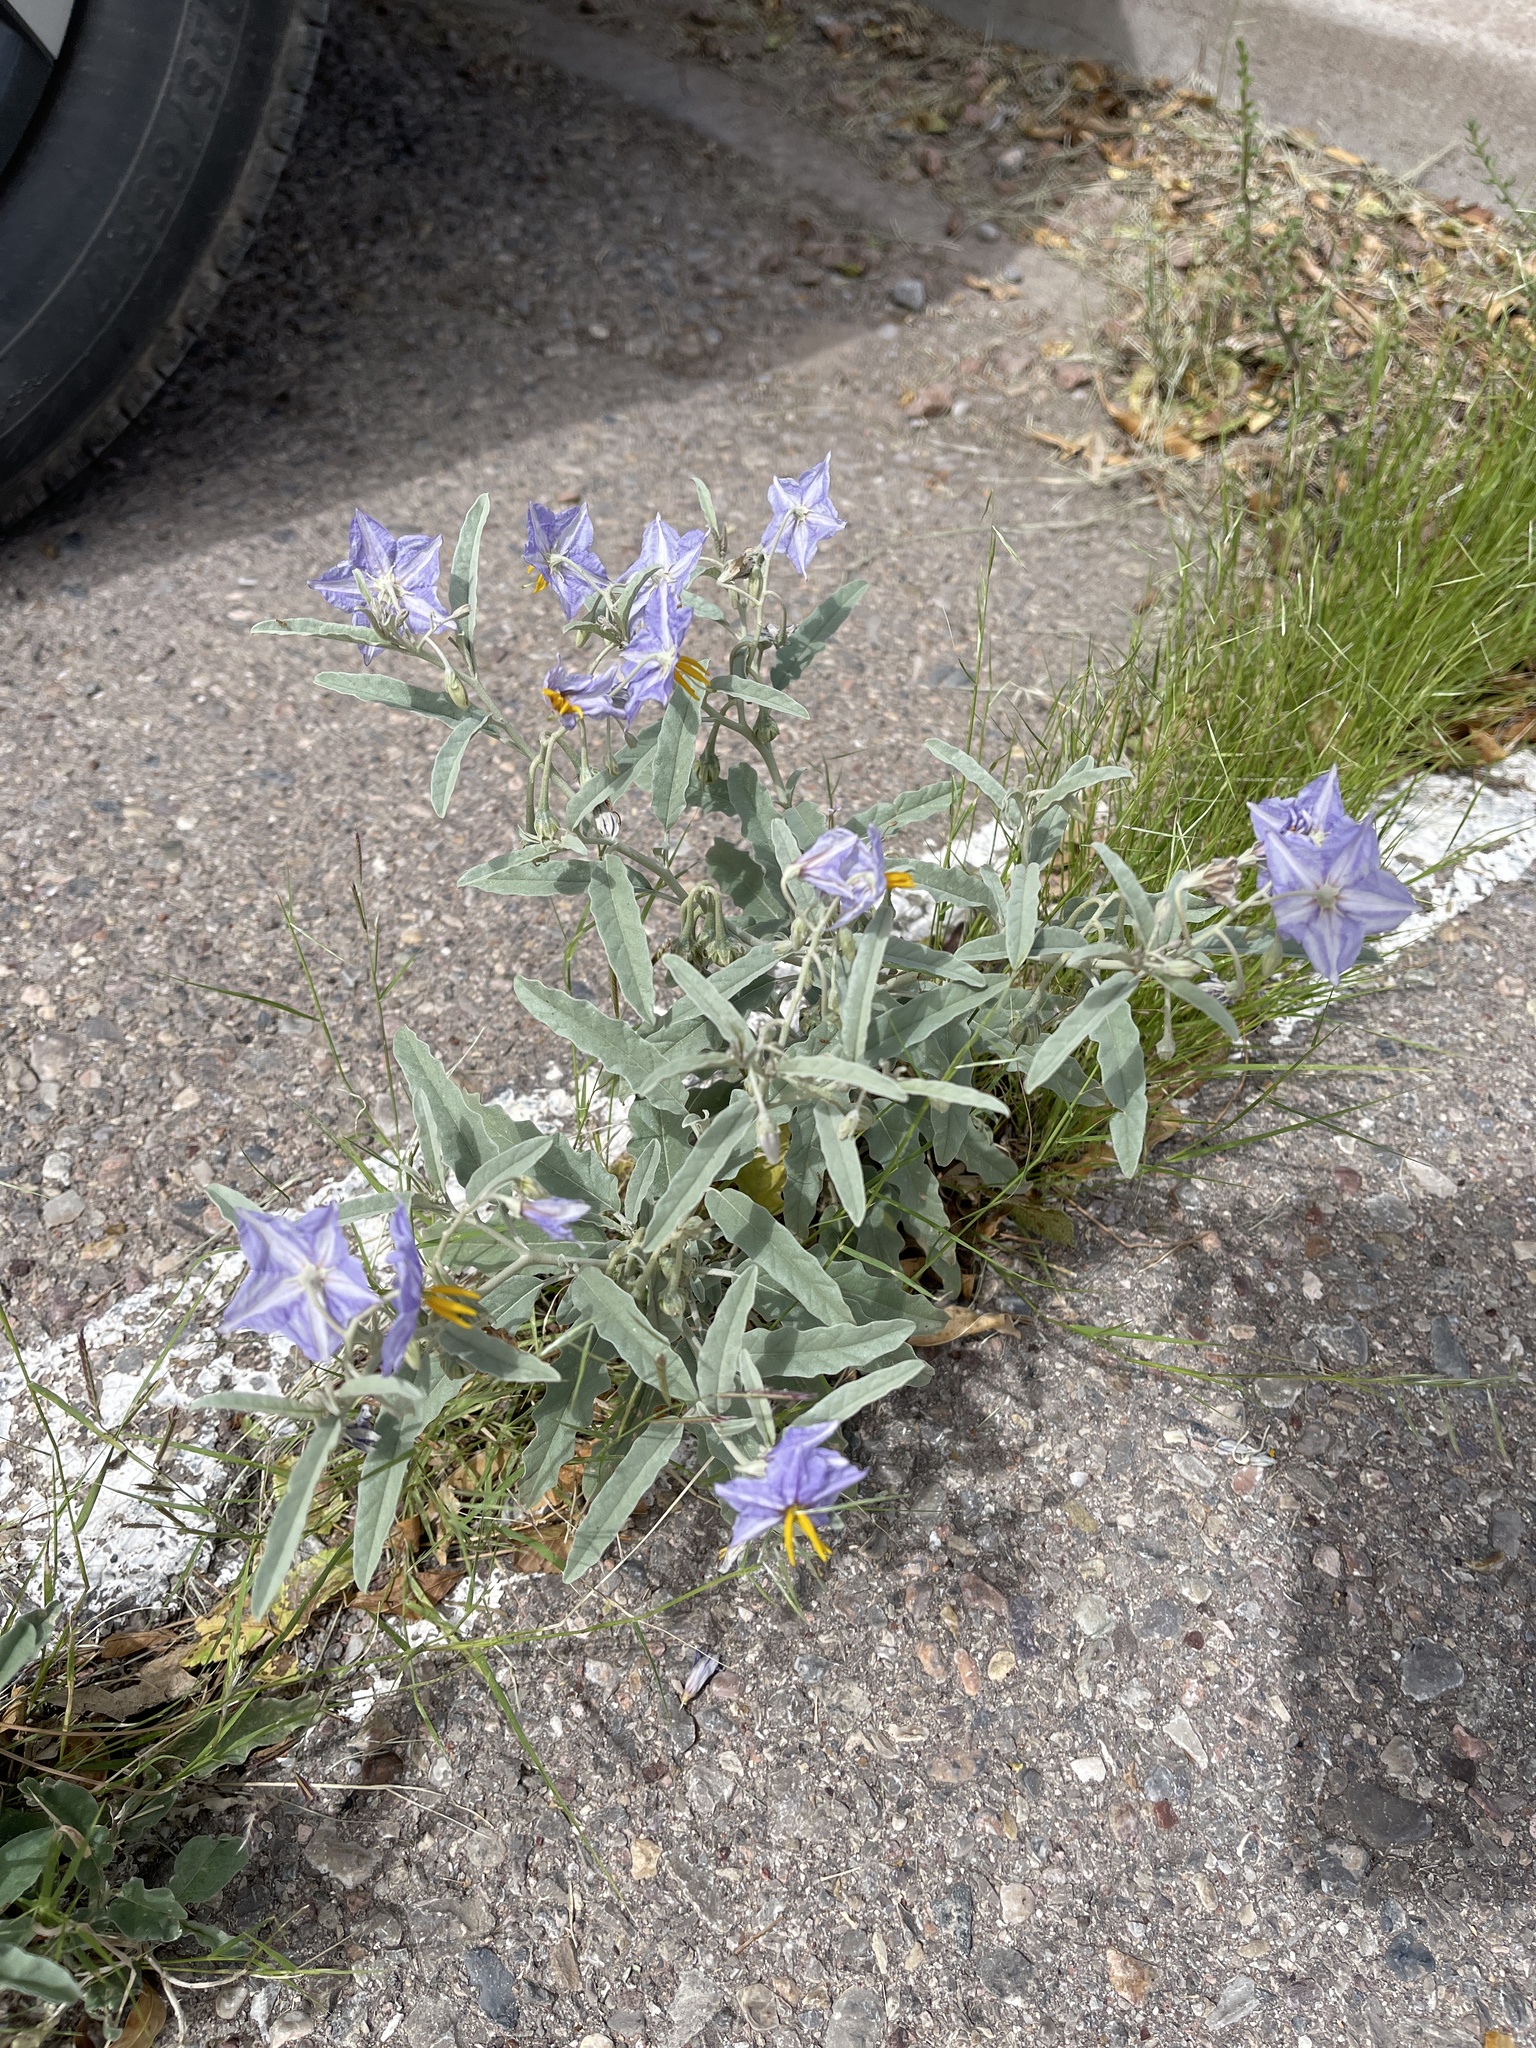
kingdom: Plantae
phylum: Tracheophyta
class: Magnoliopsida
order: Solanales
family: Solanaceae
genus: Solanum
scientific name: Solanum elaeagnifolium
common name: Silverleaf nightshade
